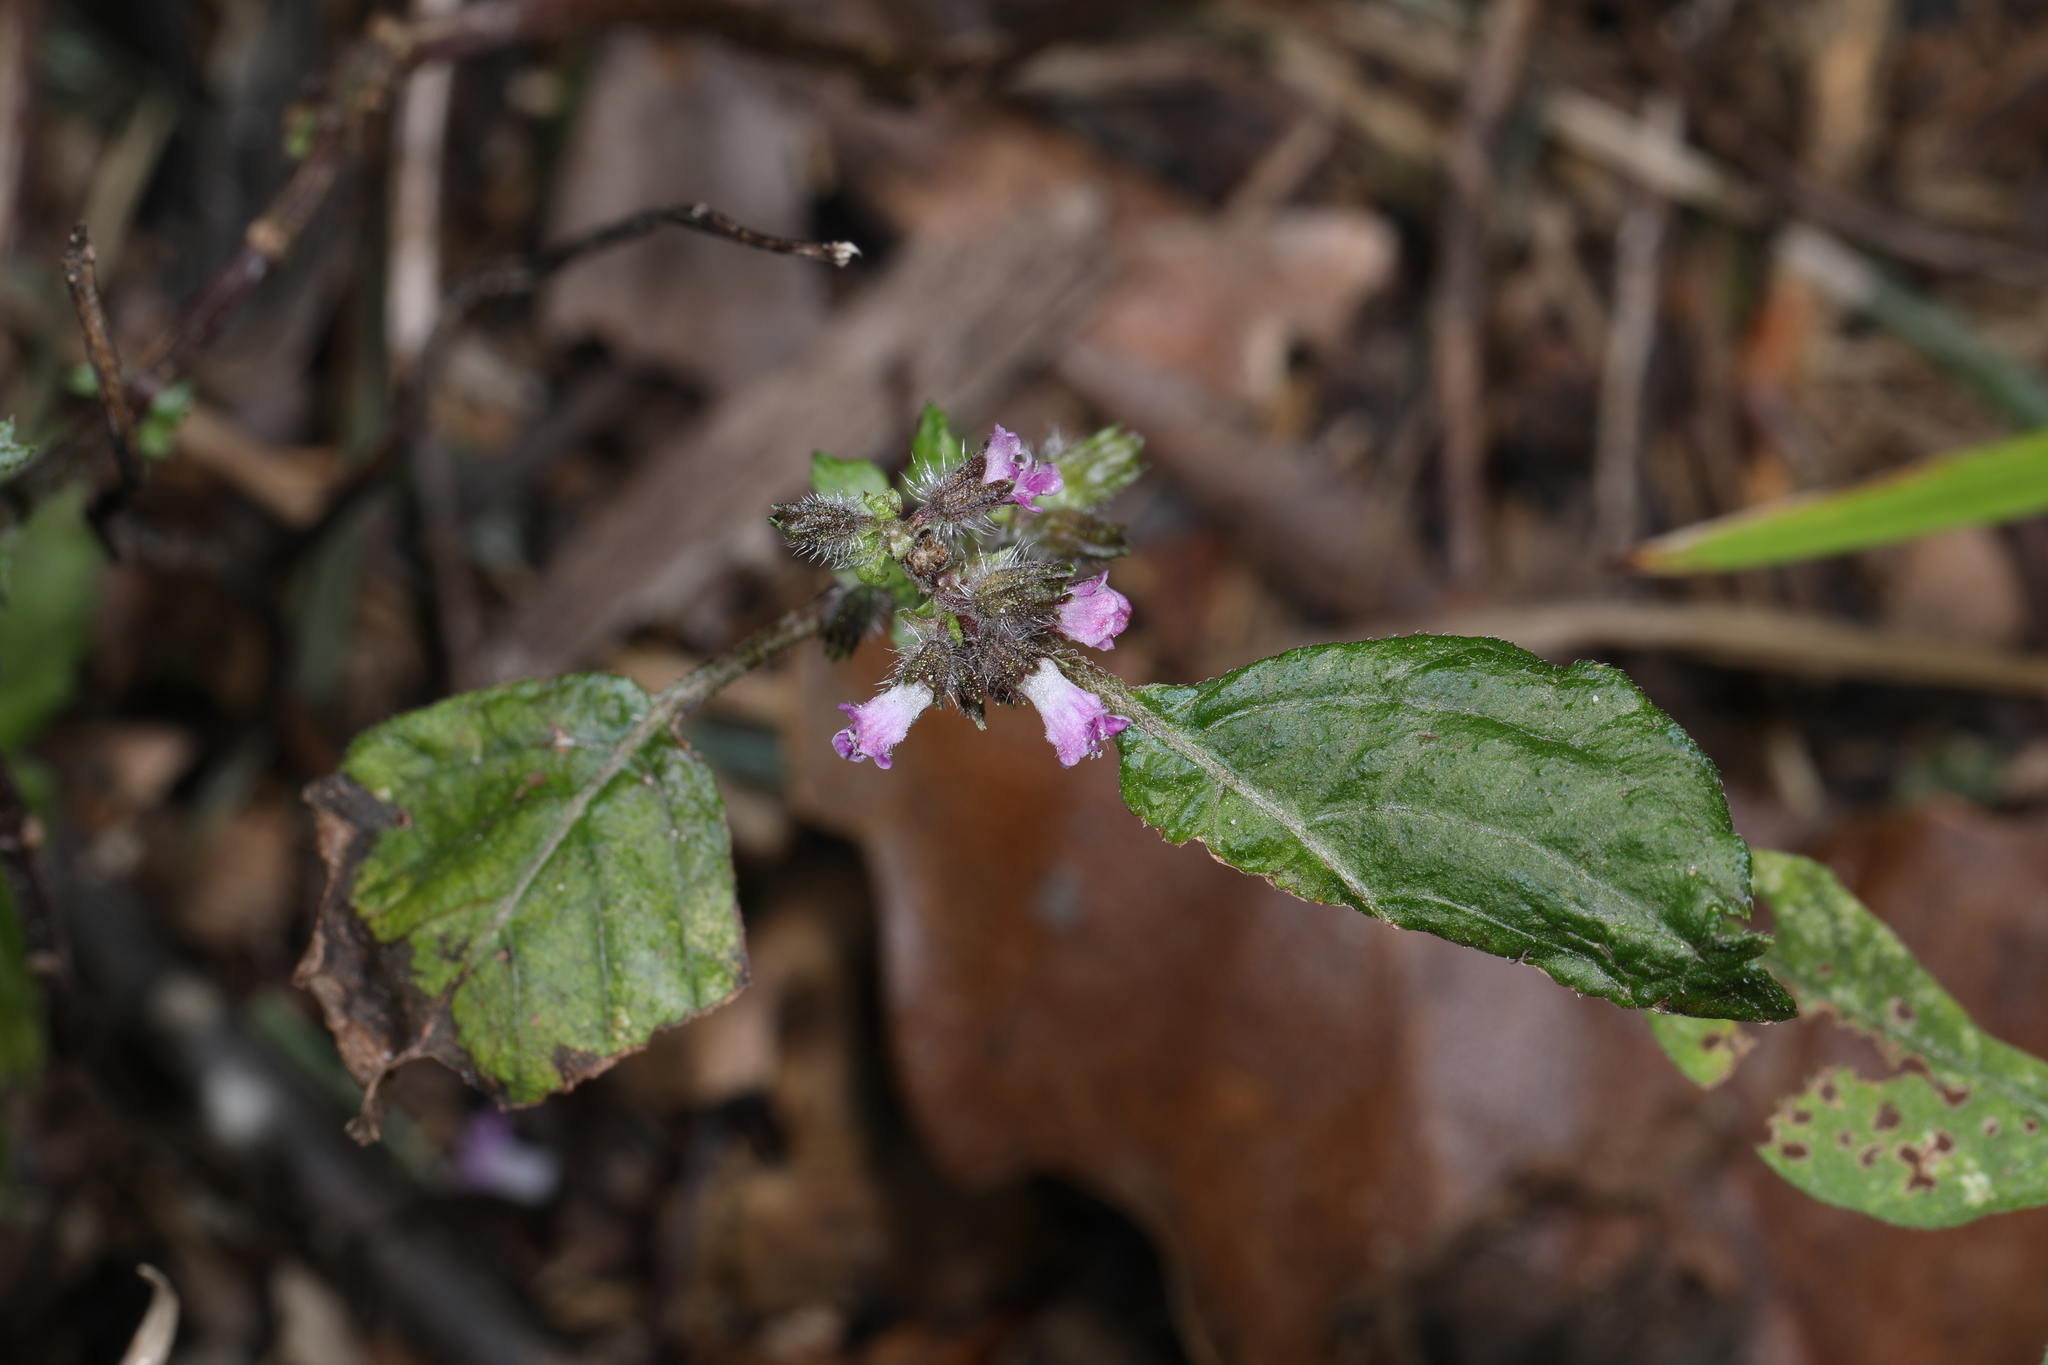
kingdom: Plantae
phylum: Tracheophyta
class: Magnoliopsida
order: Lamiales
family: Lamiaceae
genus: Perilla
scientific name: Perilla frutescens
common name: Perilla
